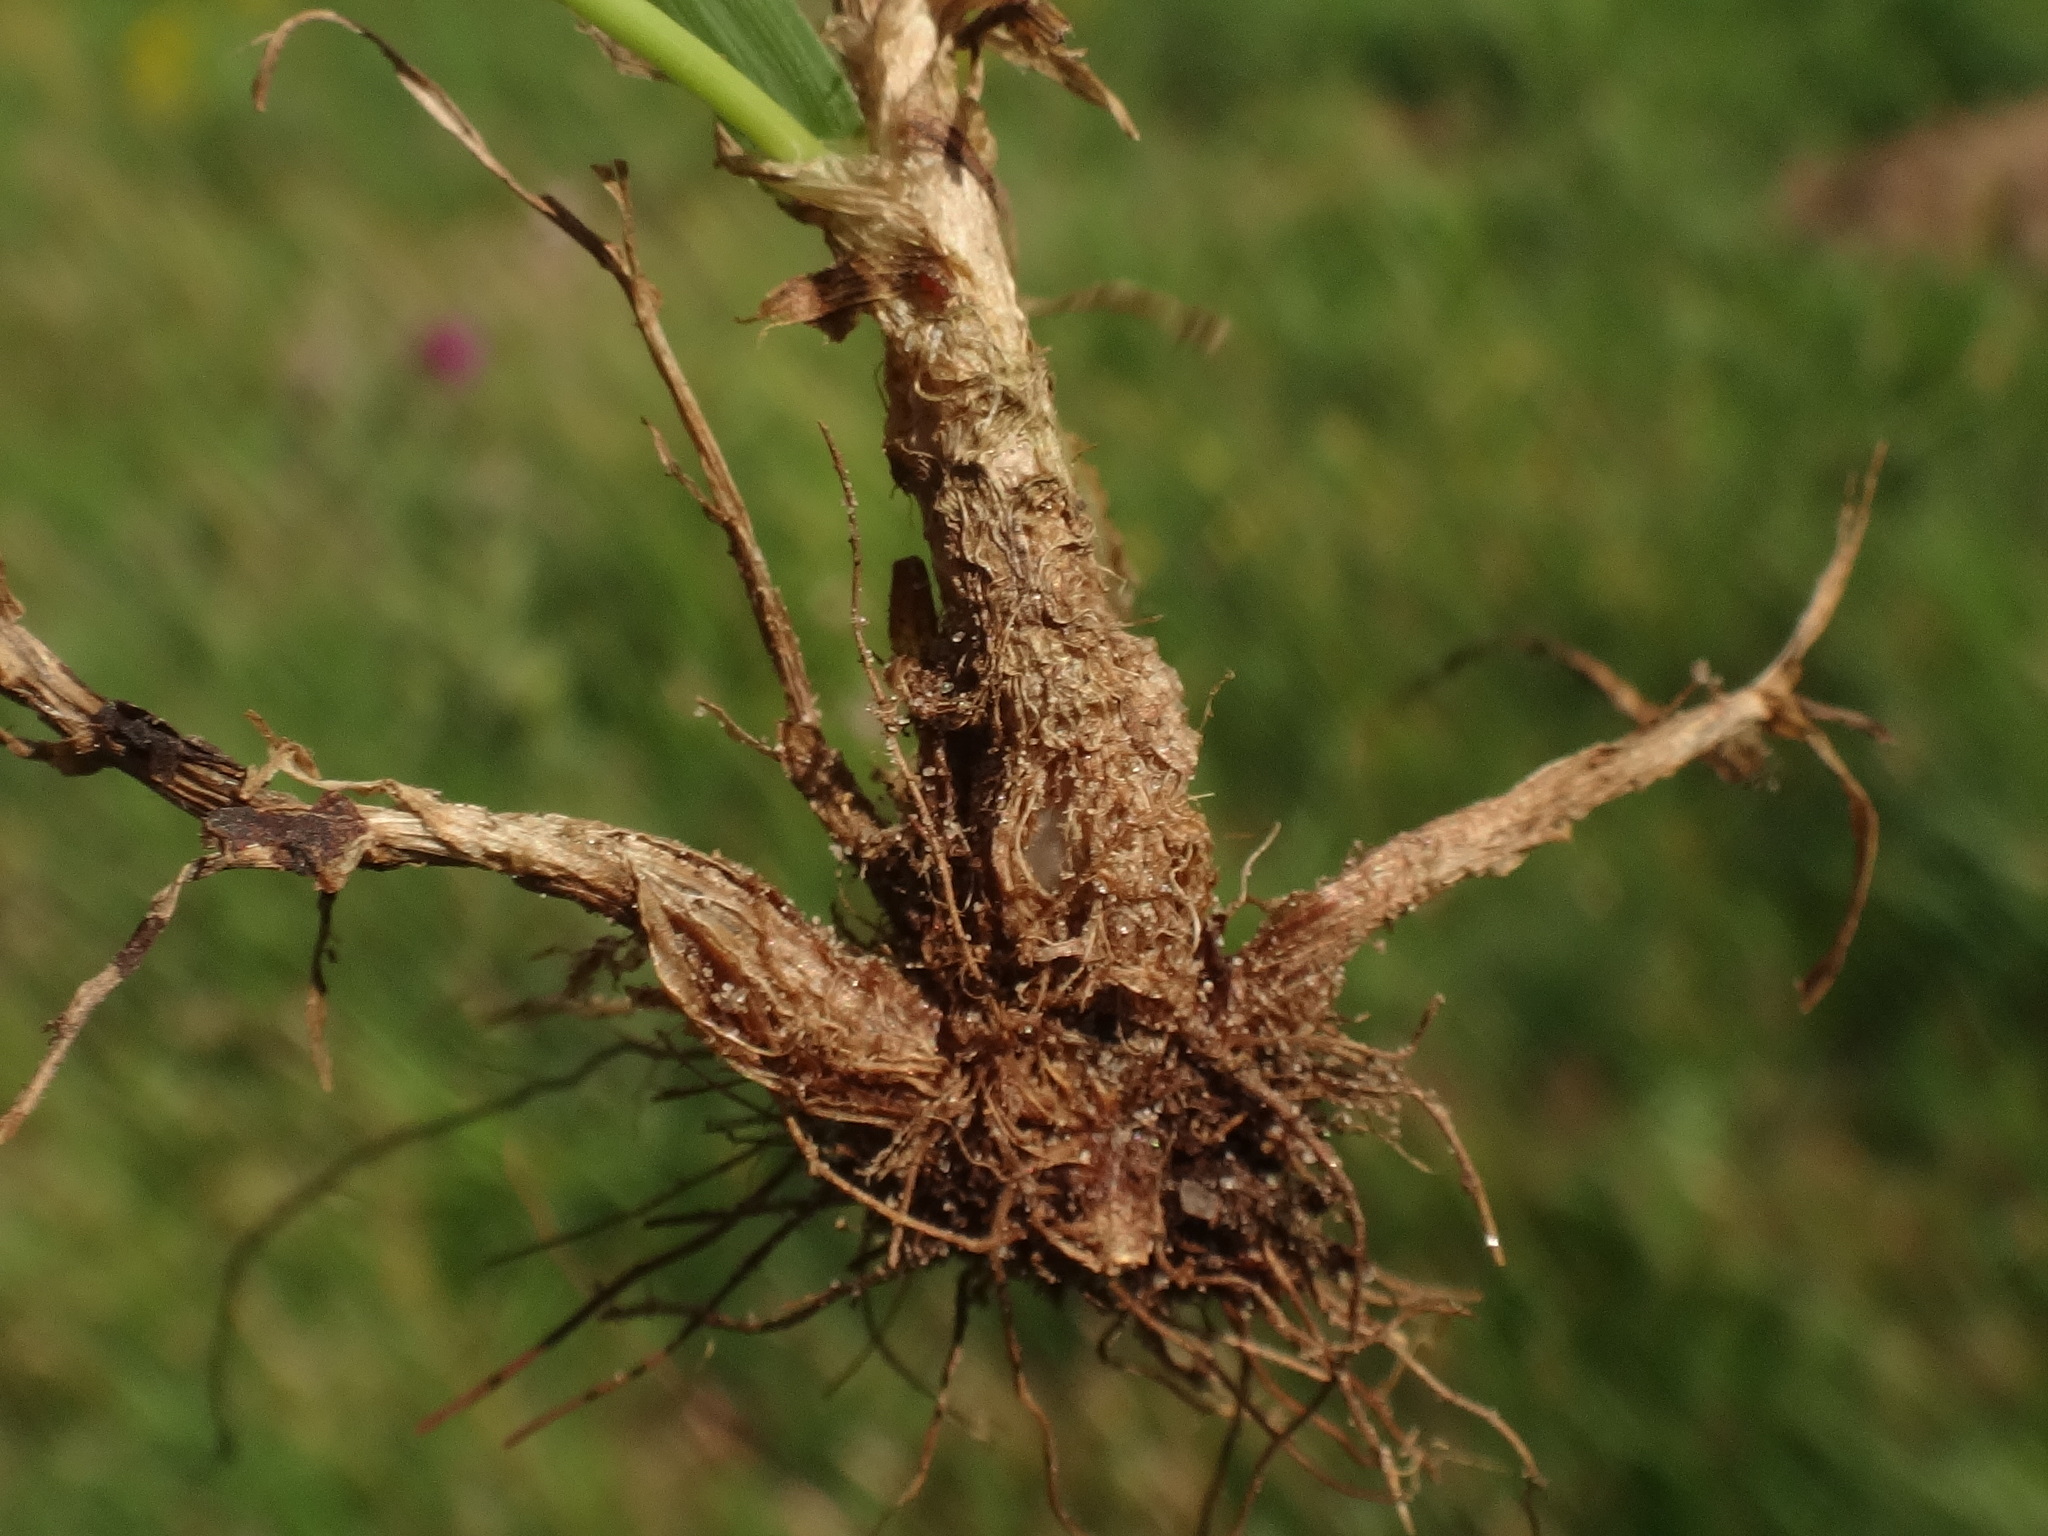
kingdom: Plantae
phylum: Tracheophyta
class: Liliopsida
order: Poales
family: Poaceae
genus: Phleum
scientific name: Phleum pratense
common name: Timothy grass
